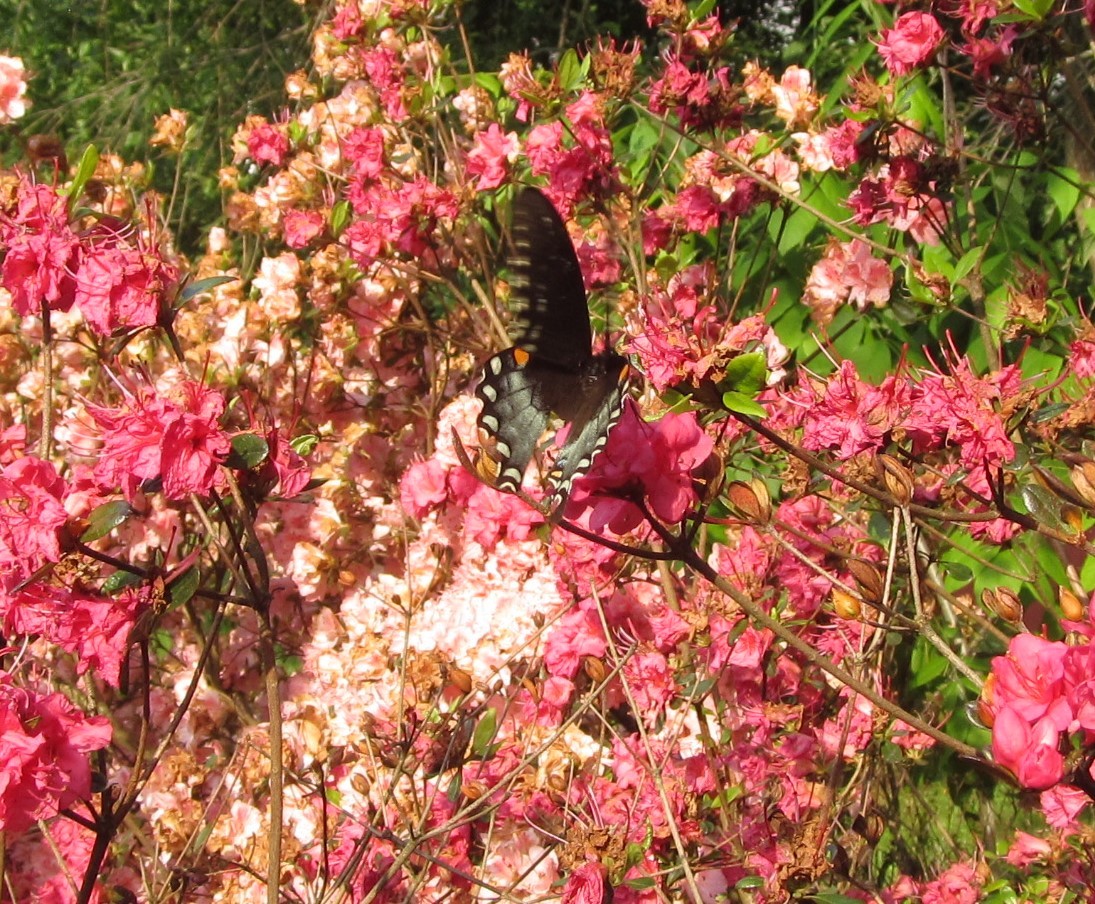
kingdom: Animalia
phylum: Arthropoda
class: Insecta
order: Lepidoptera
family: Papilionidae
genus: Papilio
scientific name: Papilio troilus
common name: Spicebush swallowtail
